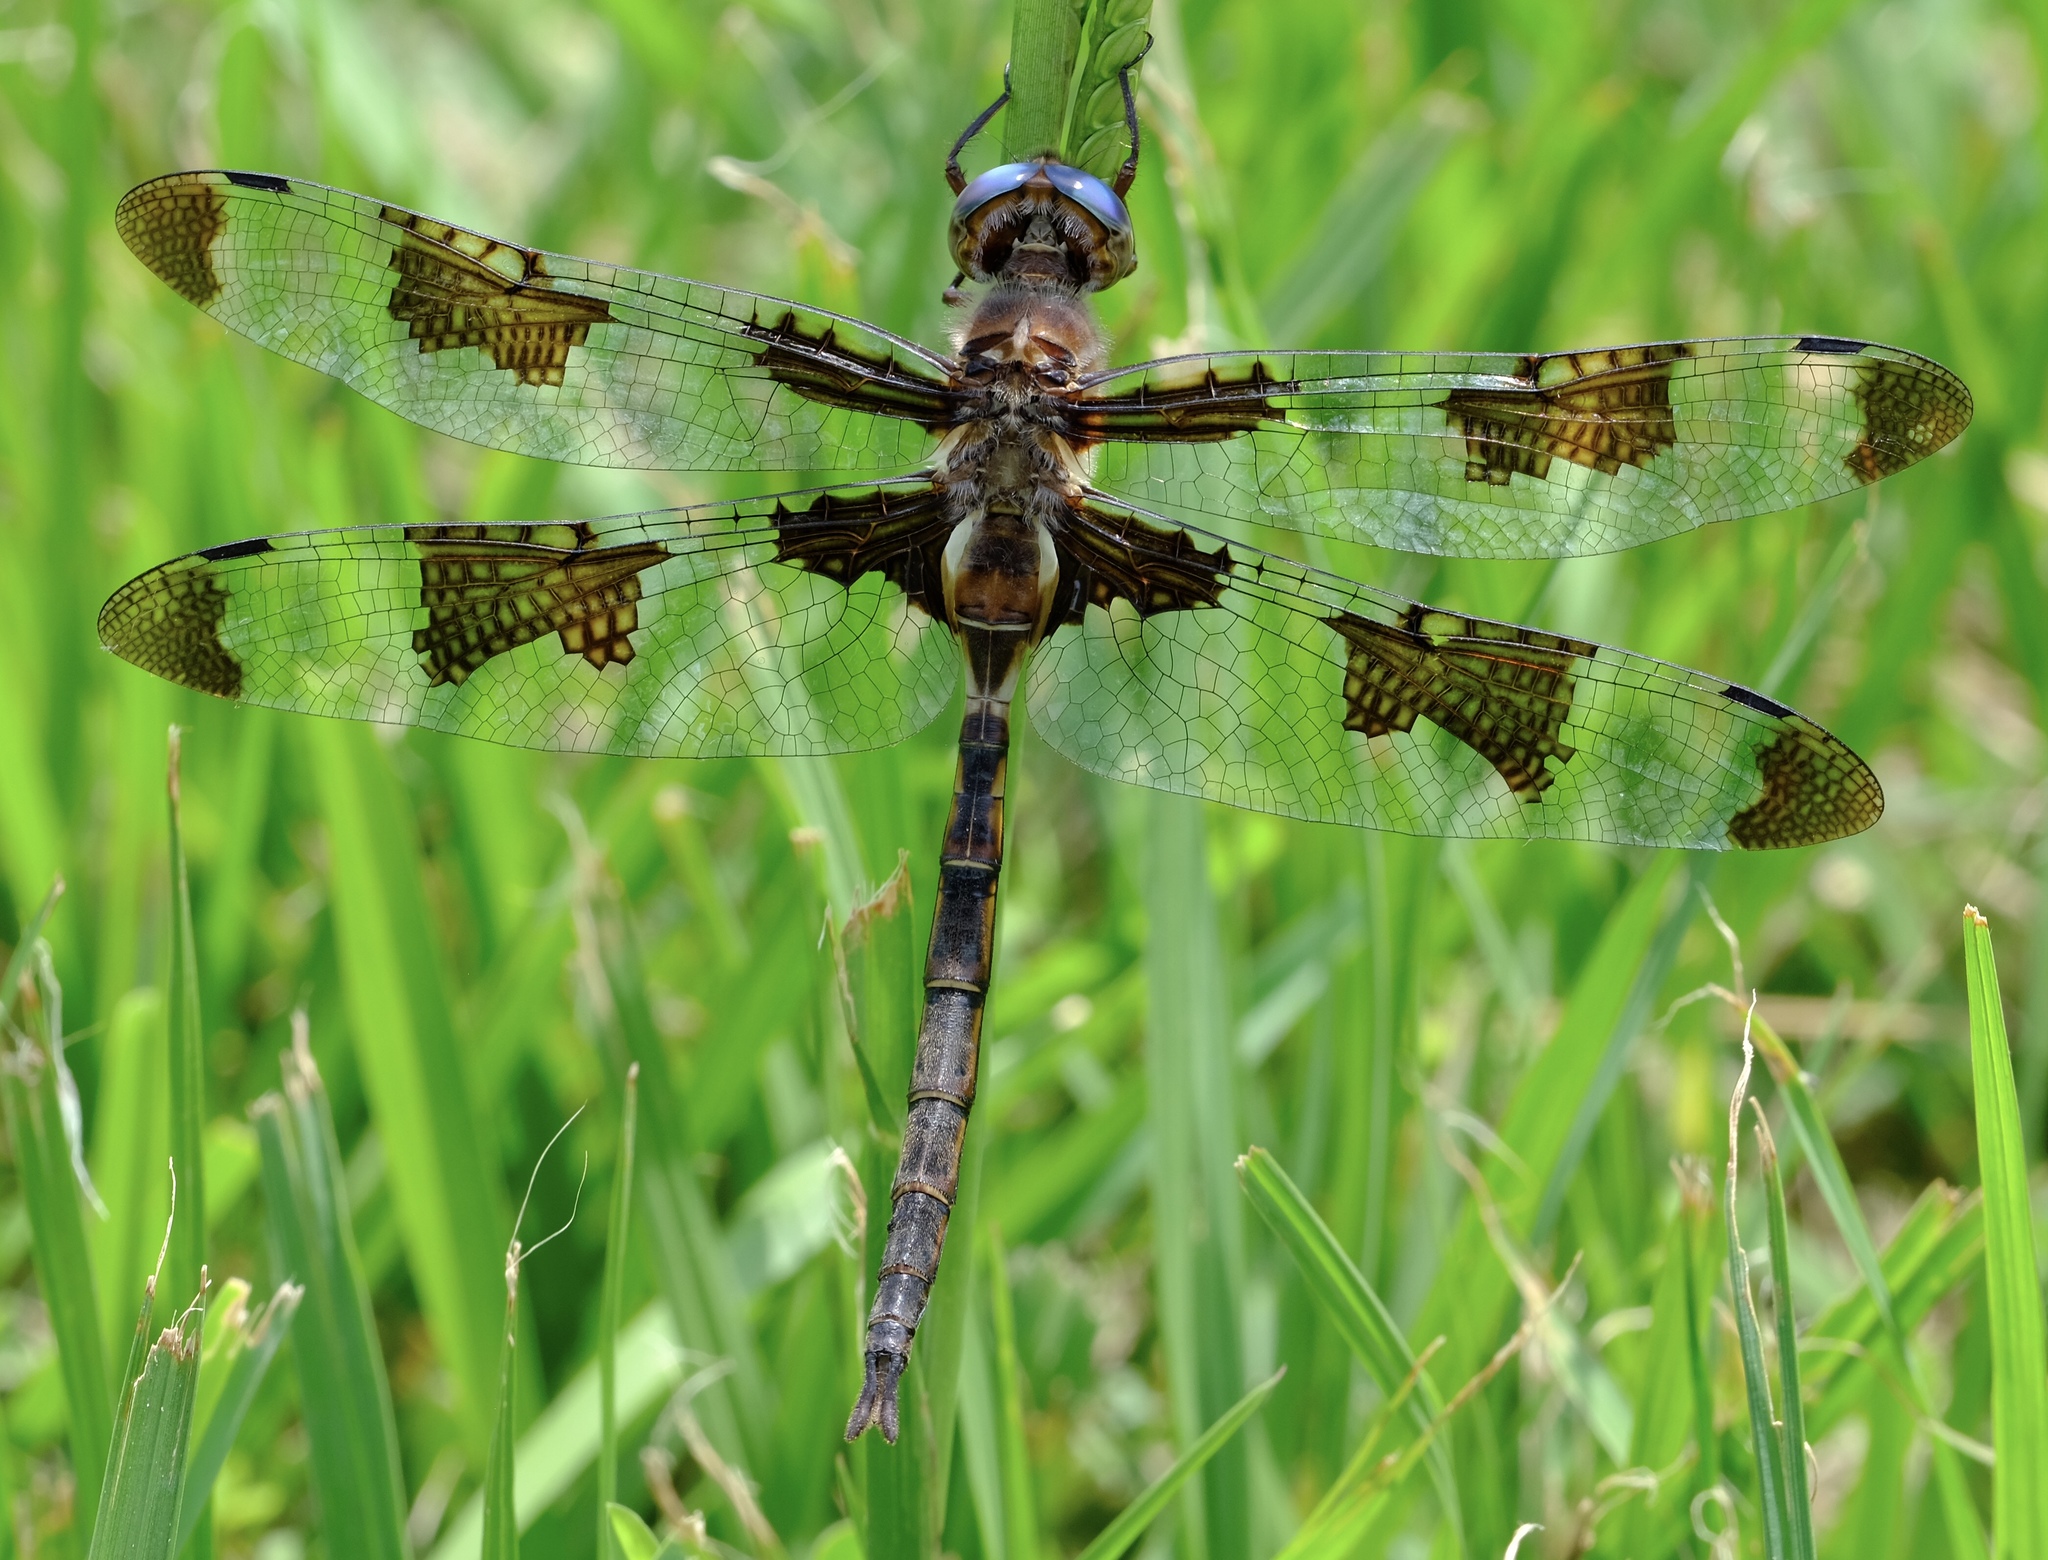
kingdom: Animalia
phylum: Arthropoda
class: Insecta
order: Odonata
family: Corduliidae
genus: Epitheca
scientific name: Epitheca princeps
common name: Prince baskettail
